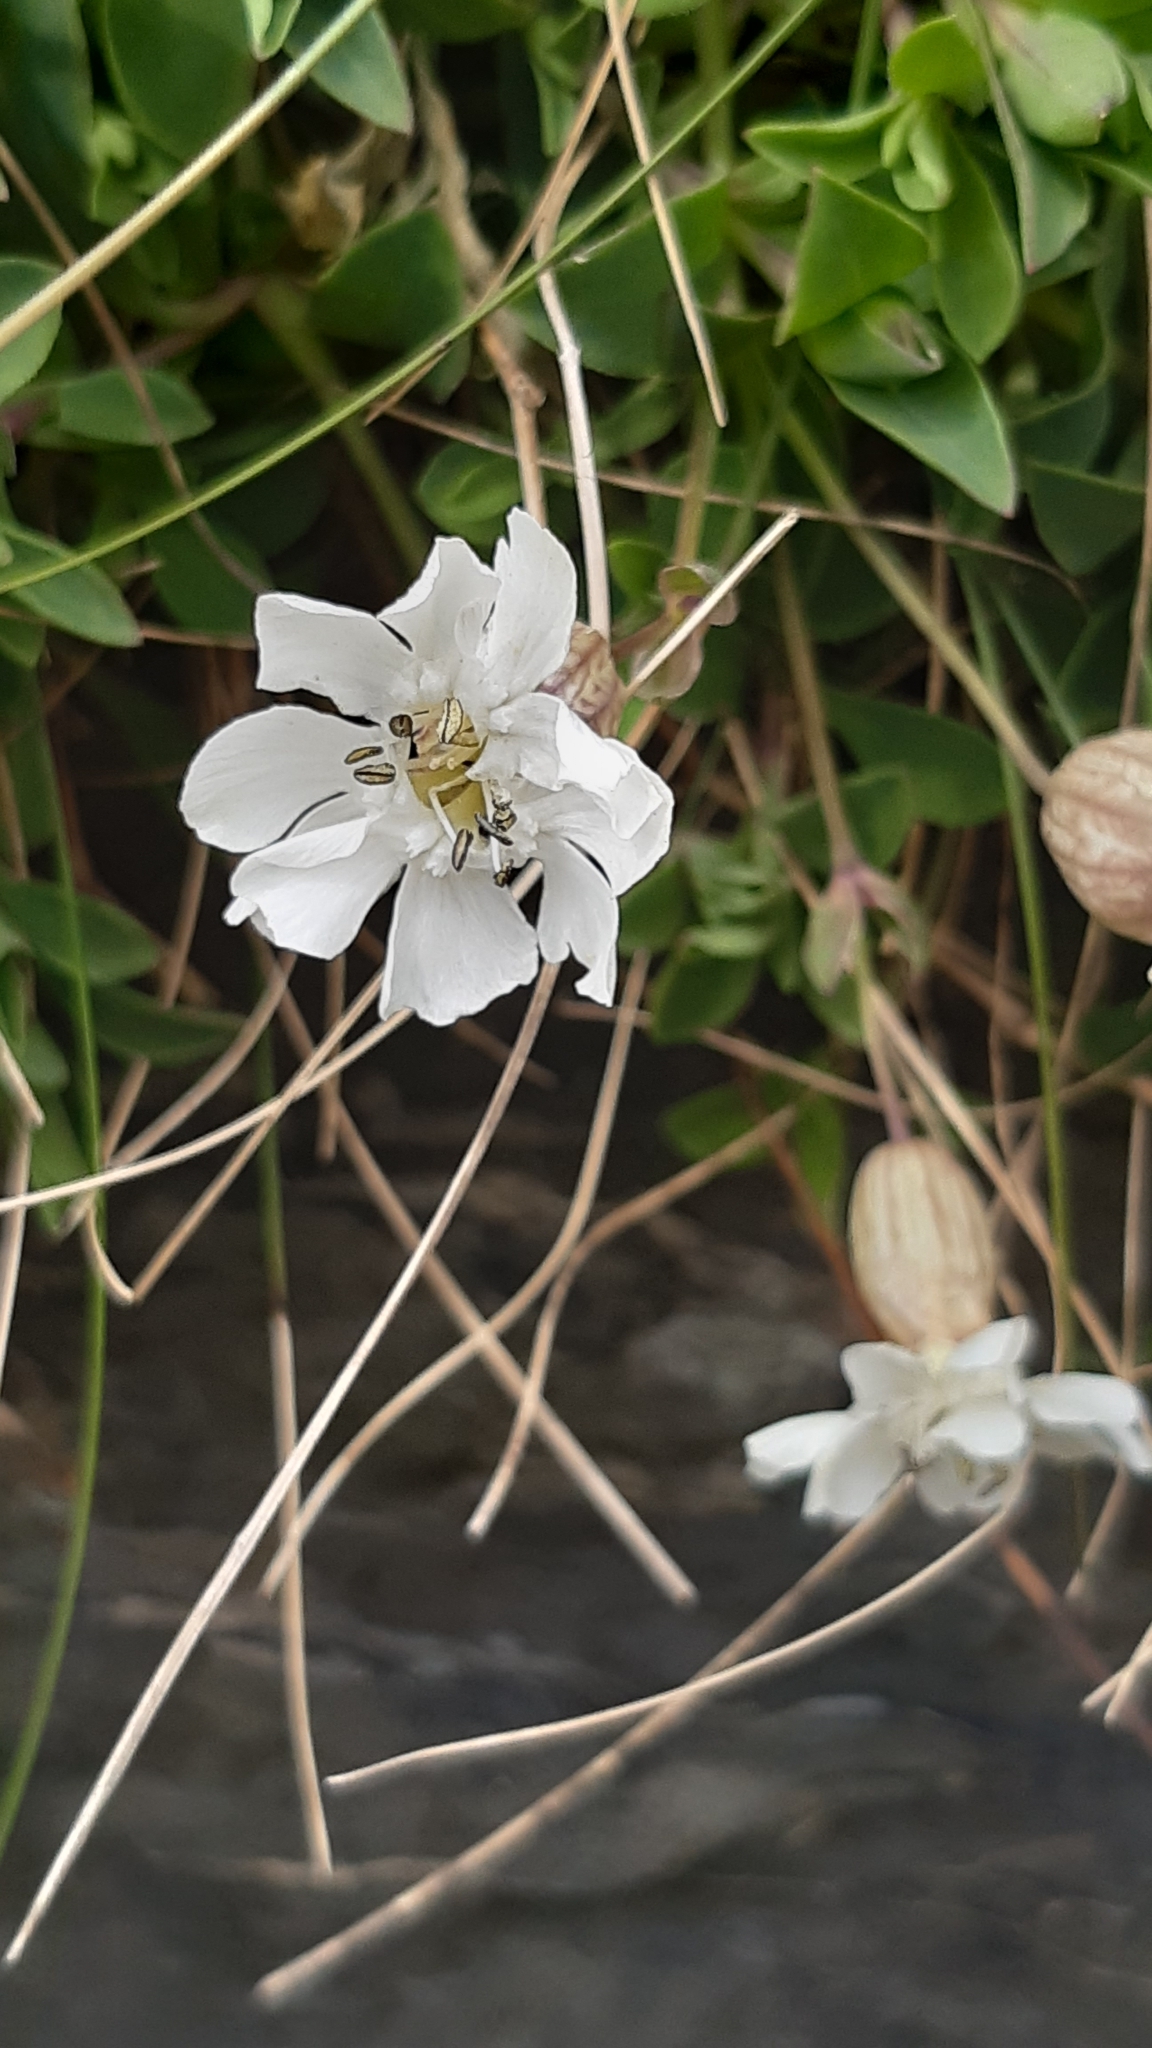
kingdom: Plantae
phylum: Tracheophyta
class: Magnoliopsida
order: Caryophyllales
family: Caryophyllaceae
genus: Silene
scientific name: Silene uniflora
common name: Sea campion
